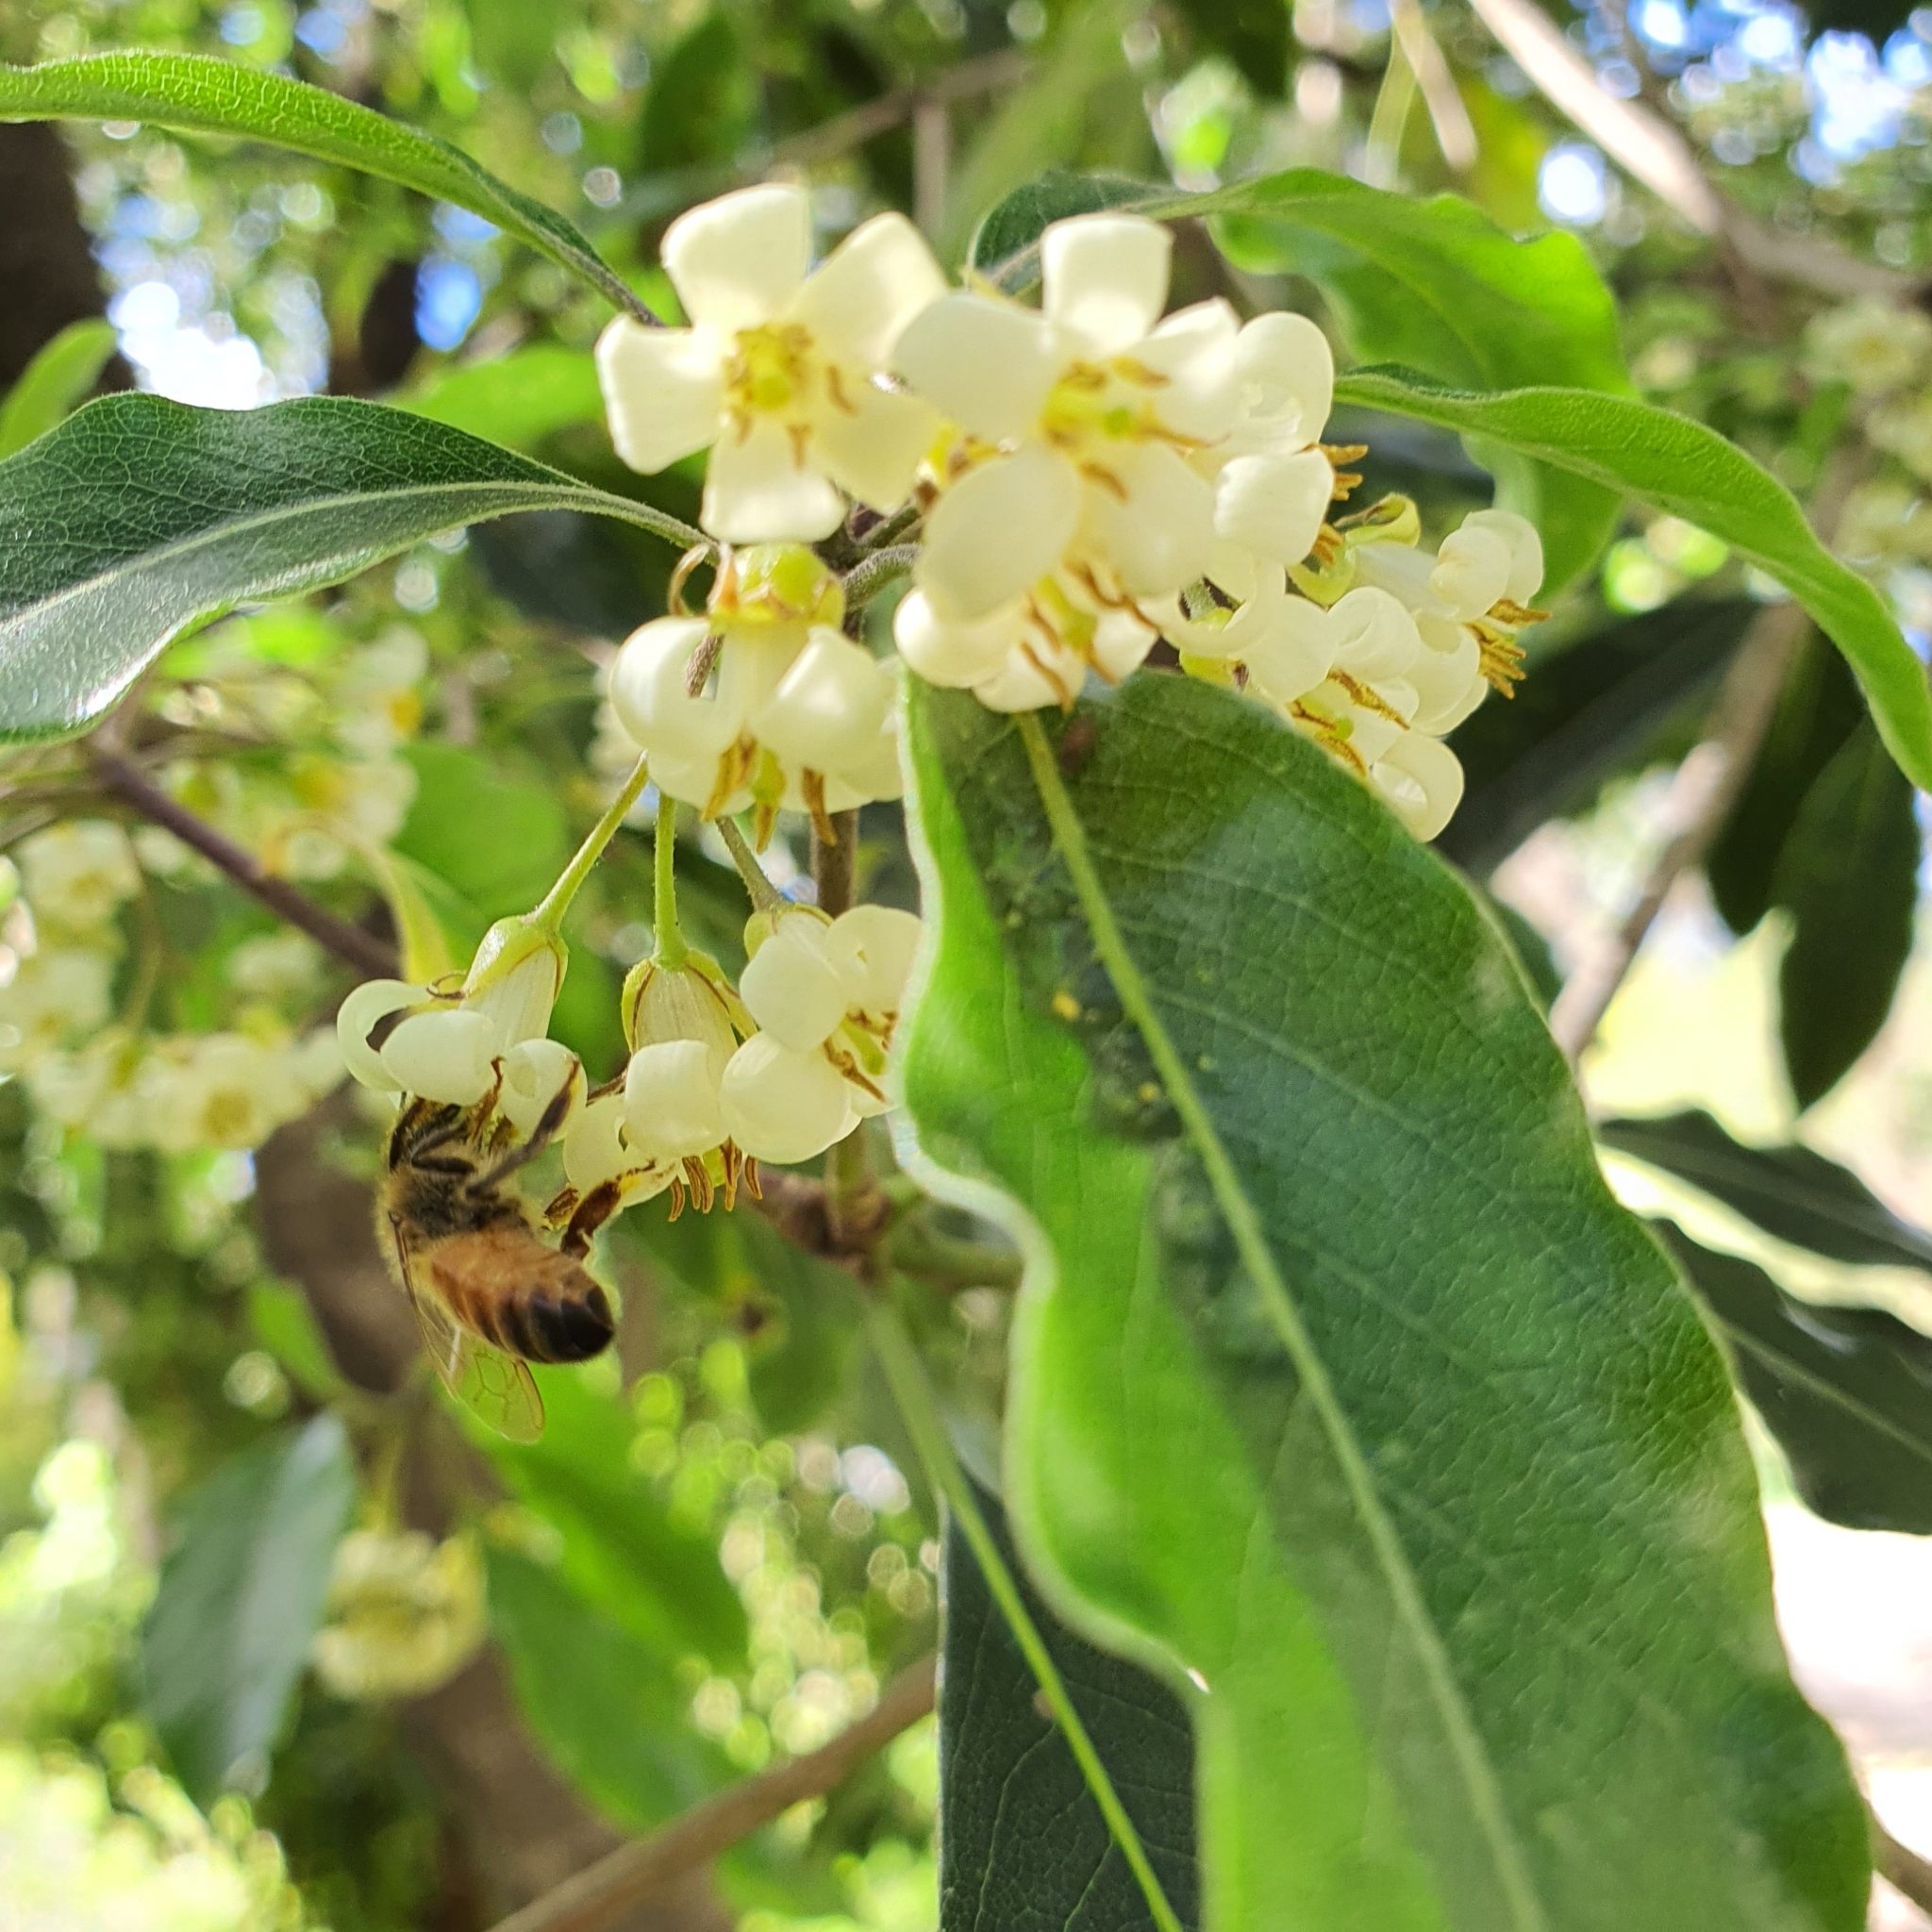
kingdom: Animalia
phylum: Arthropoda
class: Insecta
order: Hymenoptera
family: Apidae
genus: Apis
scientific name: Apis mellifera
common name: Honey bee
